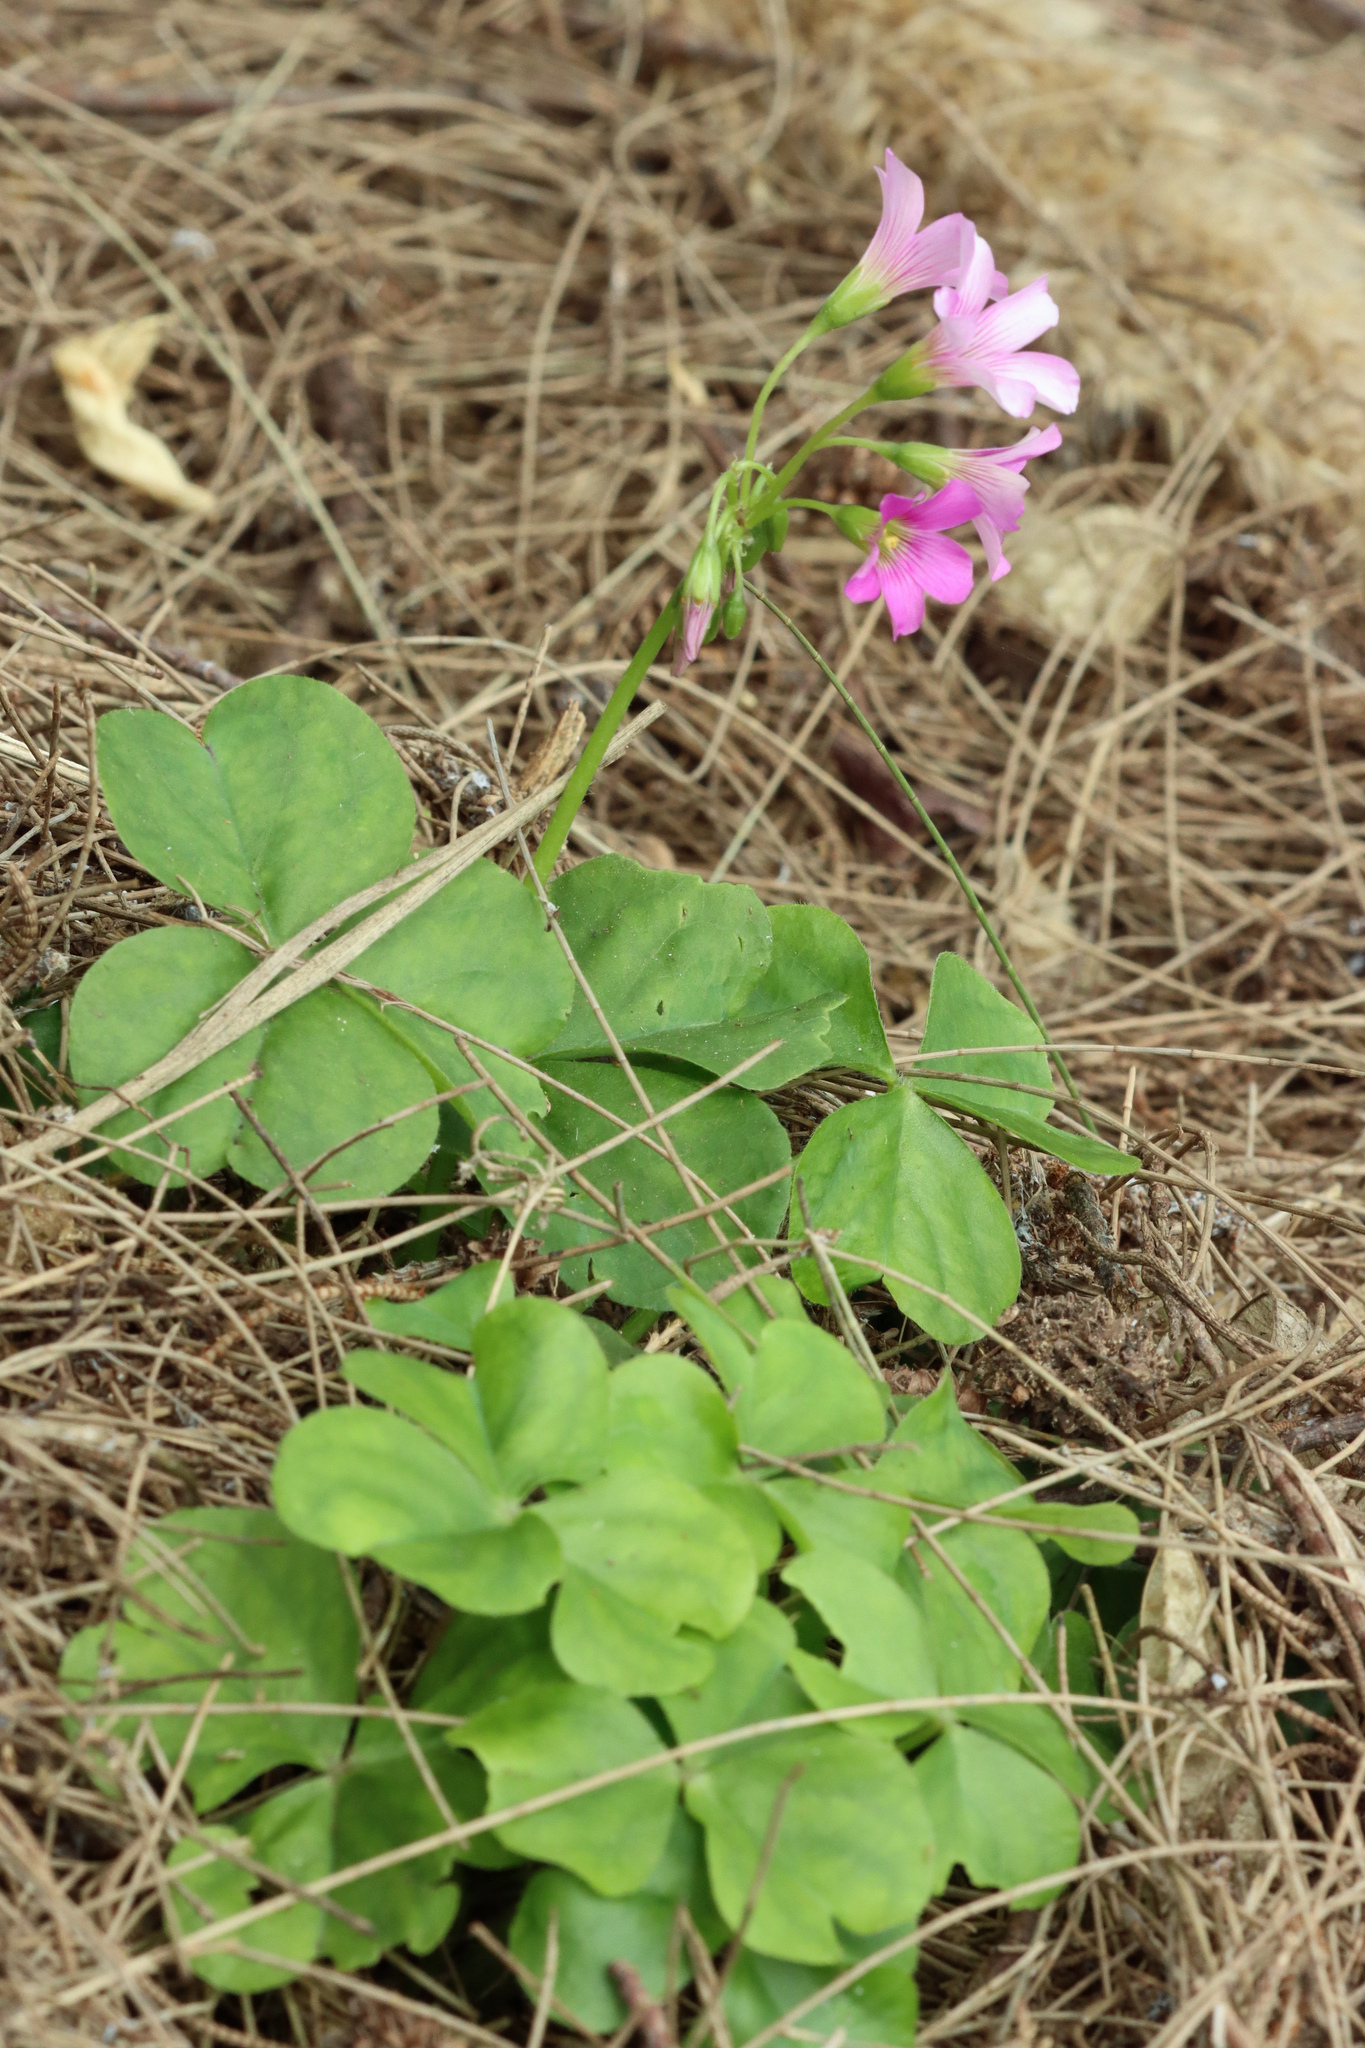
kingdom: Plantae
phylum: Tracheophyta
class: Magnoliopsida
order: Oxalidales
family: Oxalidaceae
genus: Oxalis
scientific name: Oxalis debilis
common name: Large-flowered pink-sorrel
